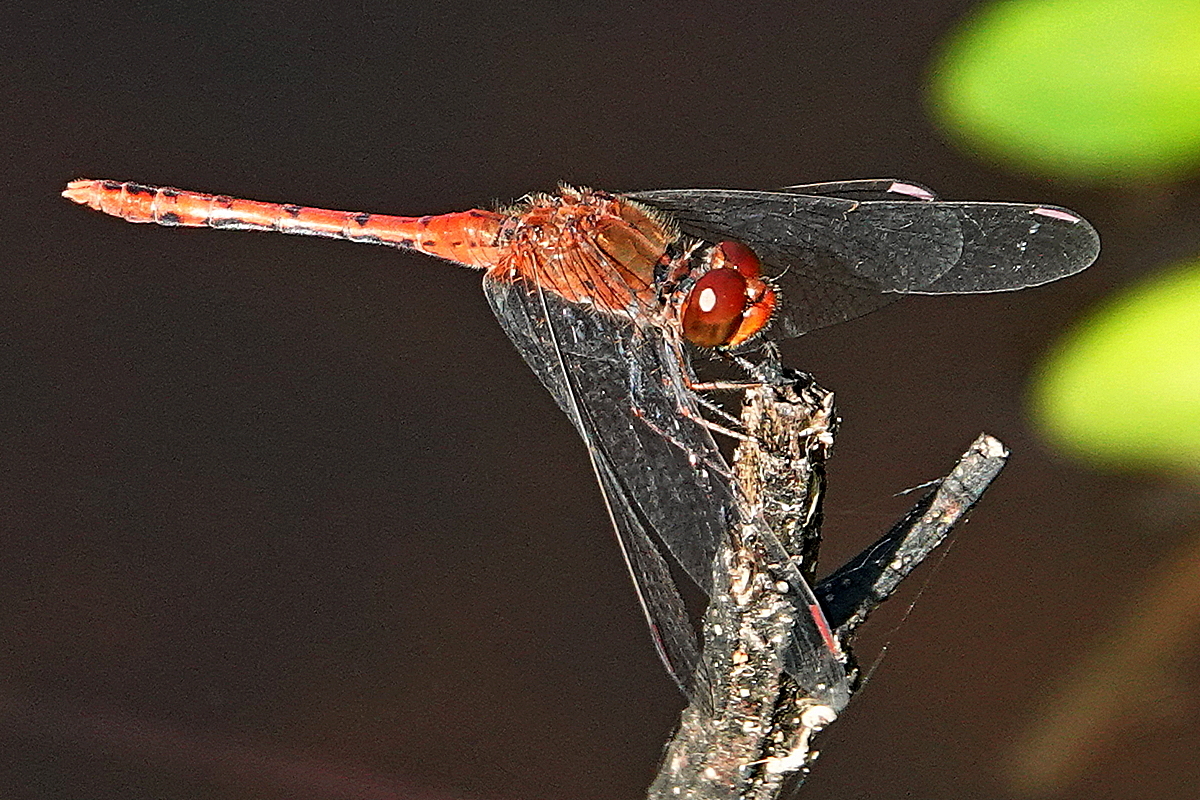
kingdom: Animalia
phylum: Arthropoda
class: Insecta
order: Odonata
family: Libellulidae
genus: Diplacodes
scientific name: Diplacodes bipunctata
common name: Red percher dragonfly
